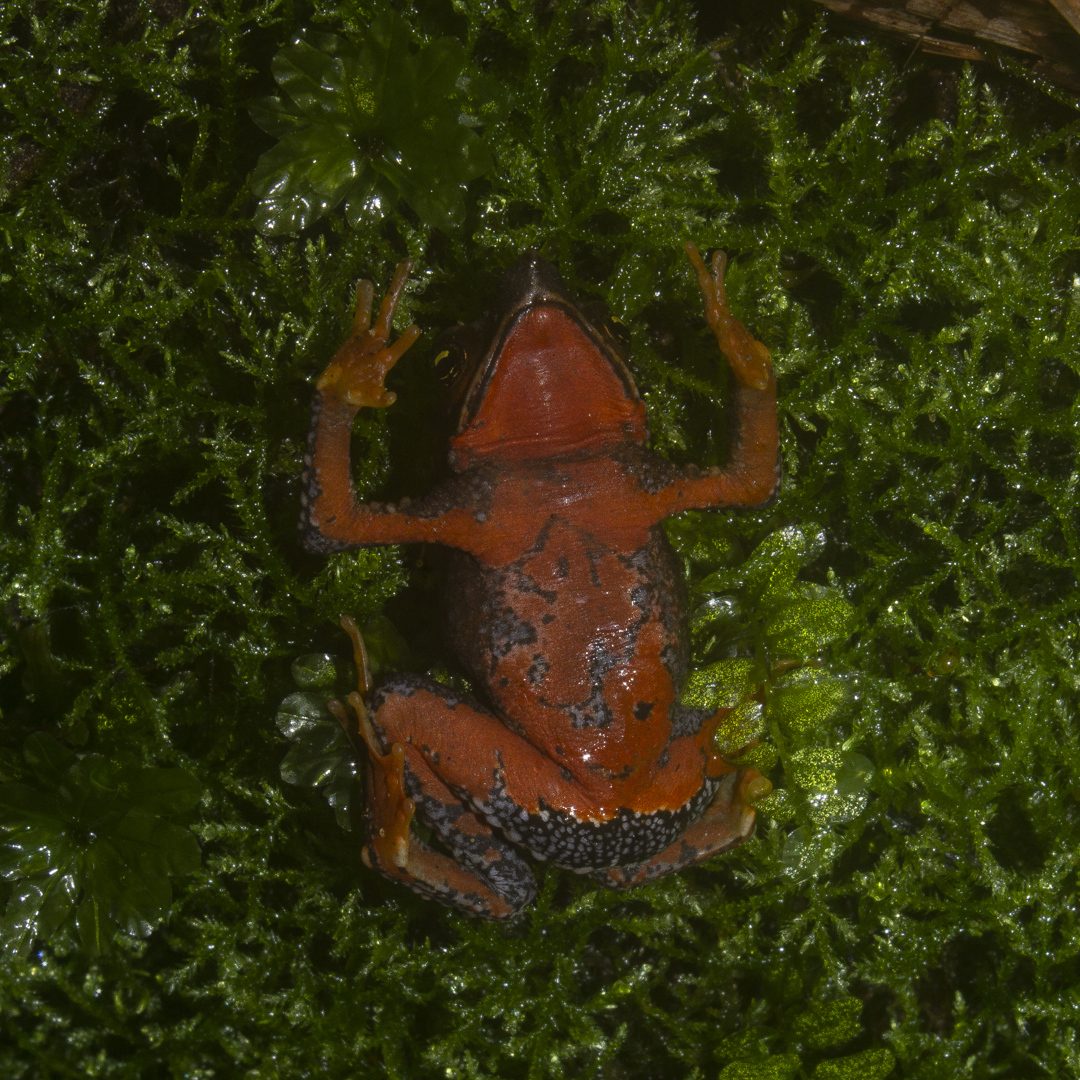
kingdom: Animalia
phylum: Chordata
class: Amphibia
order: Anura
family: Bufonidae
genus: Atelopus
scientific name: Atelopus nahumae
